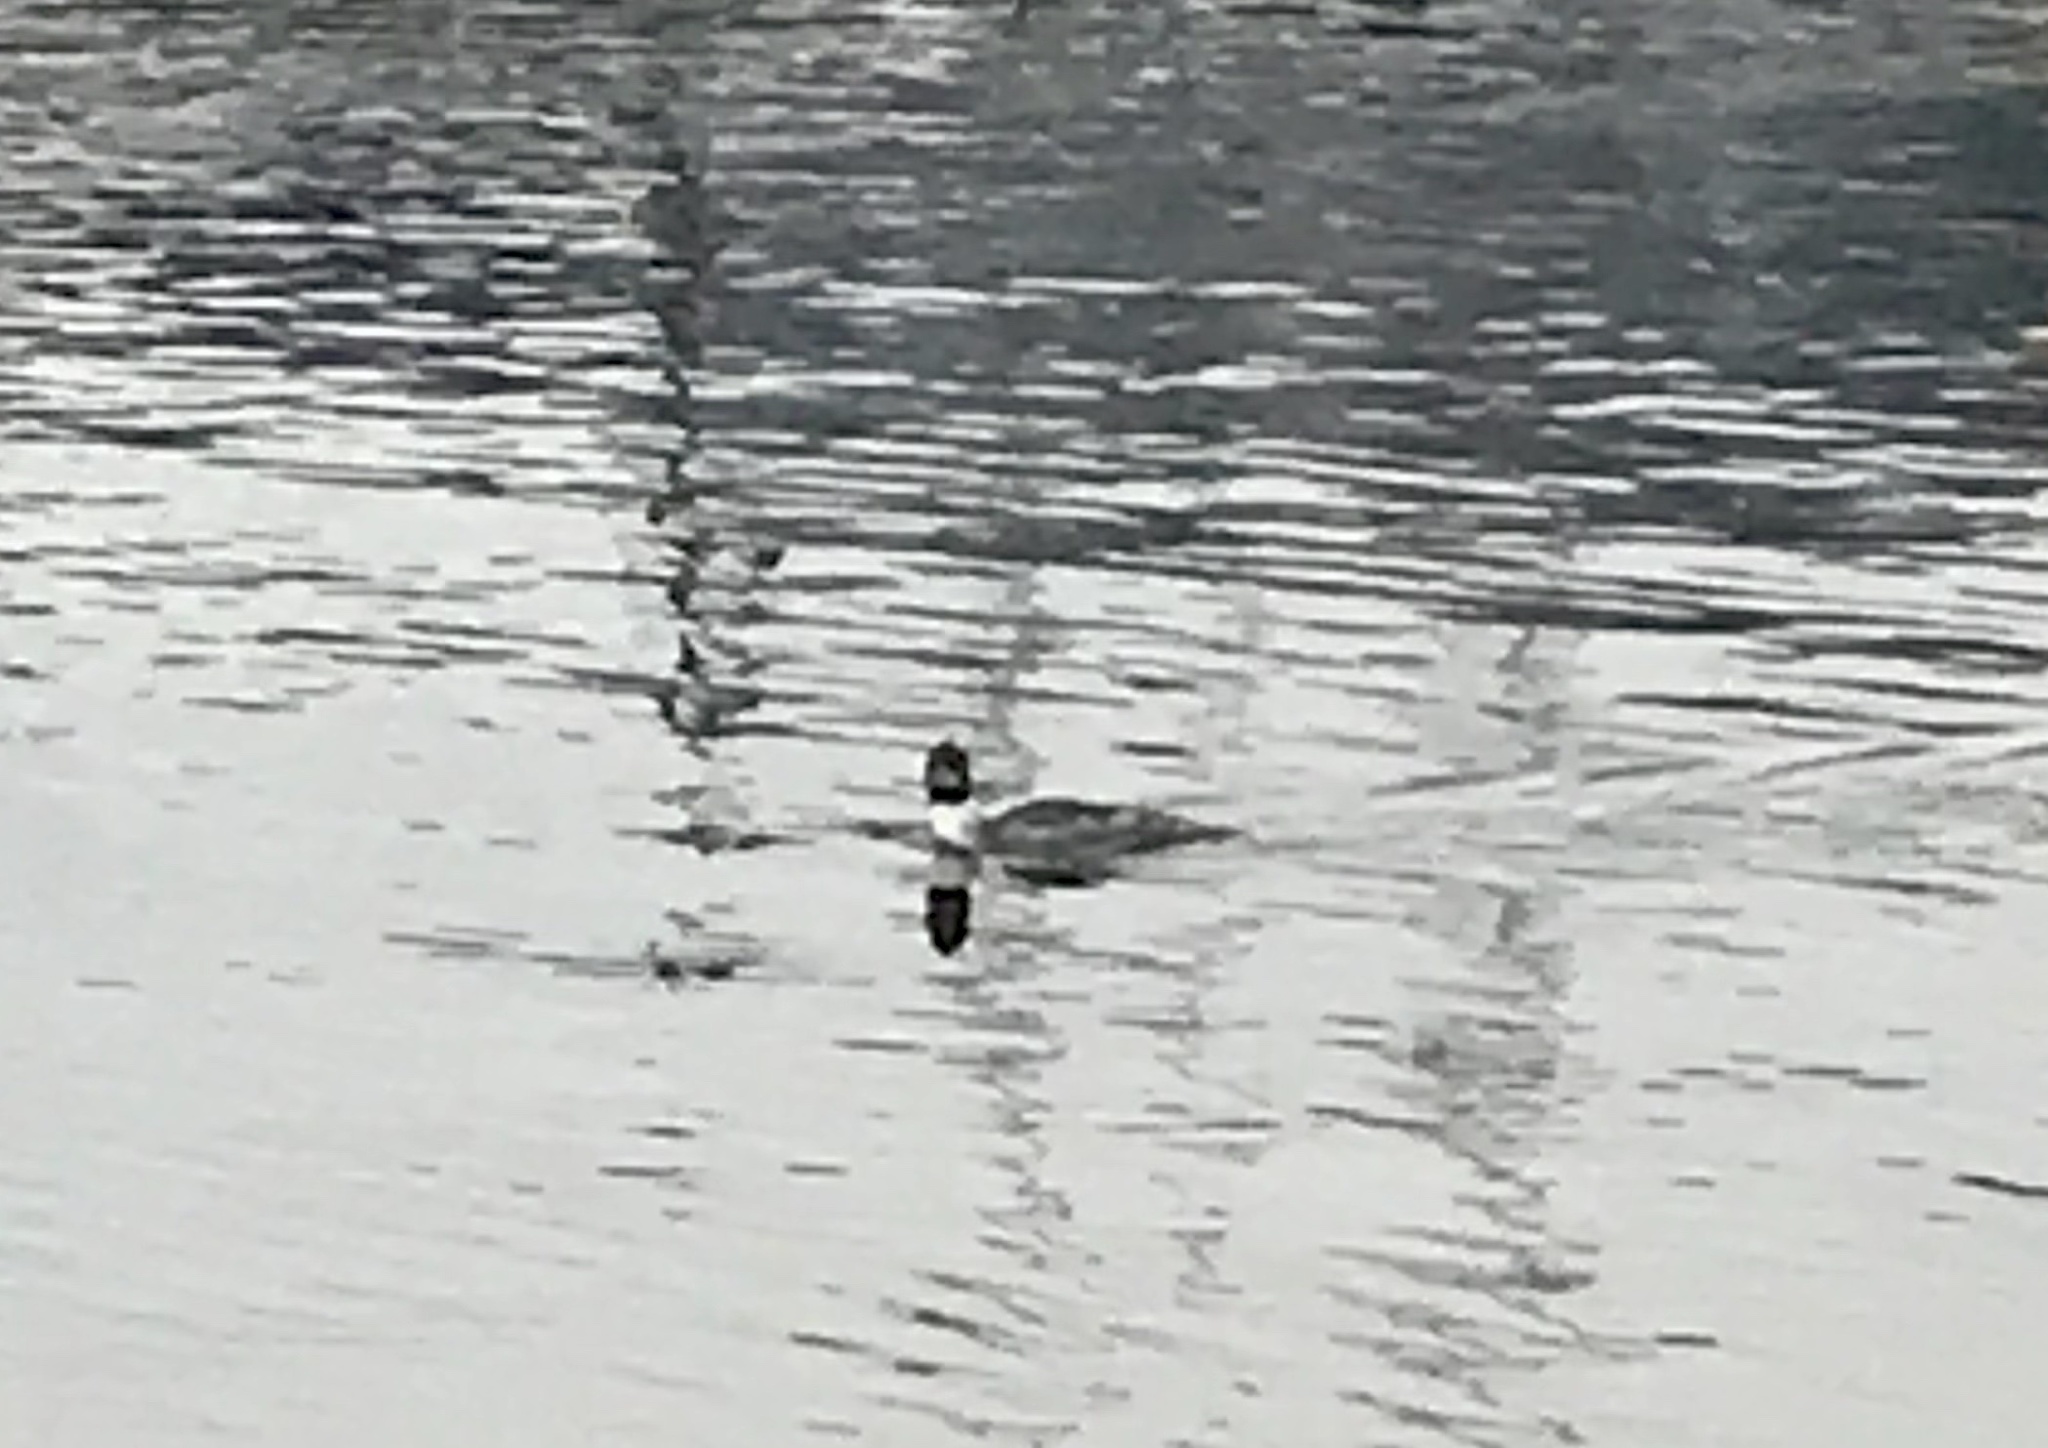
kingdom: Animalia
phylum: Chordata
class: Aves
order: Anseriformes
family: Anatidae
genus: Mergus
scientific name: Mergus merganser
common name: Common merganser
